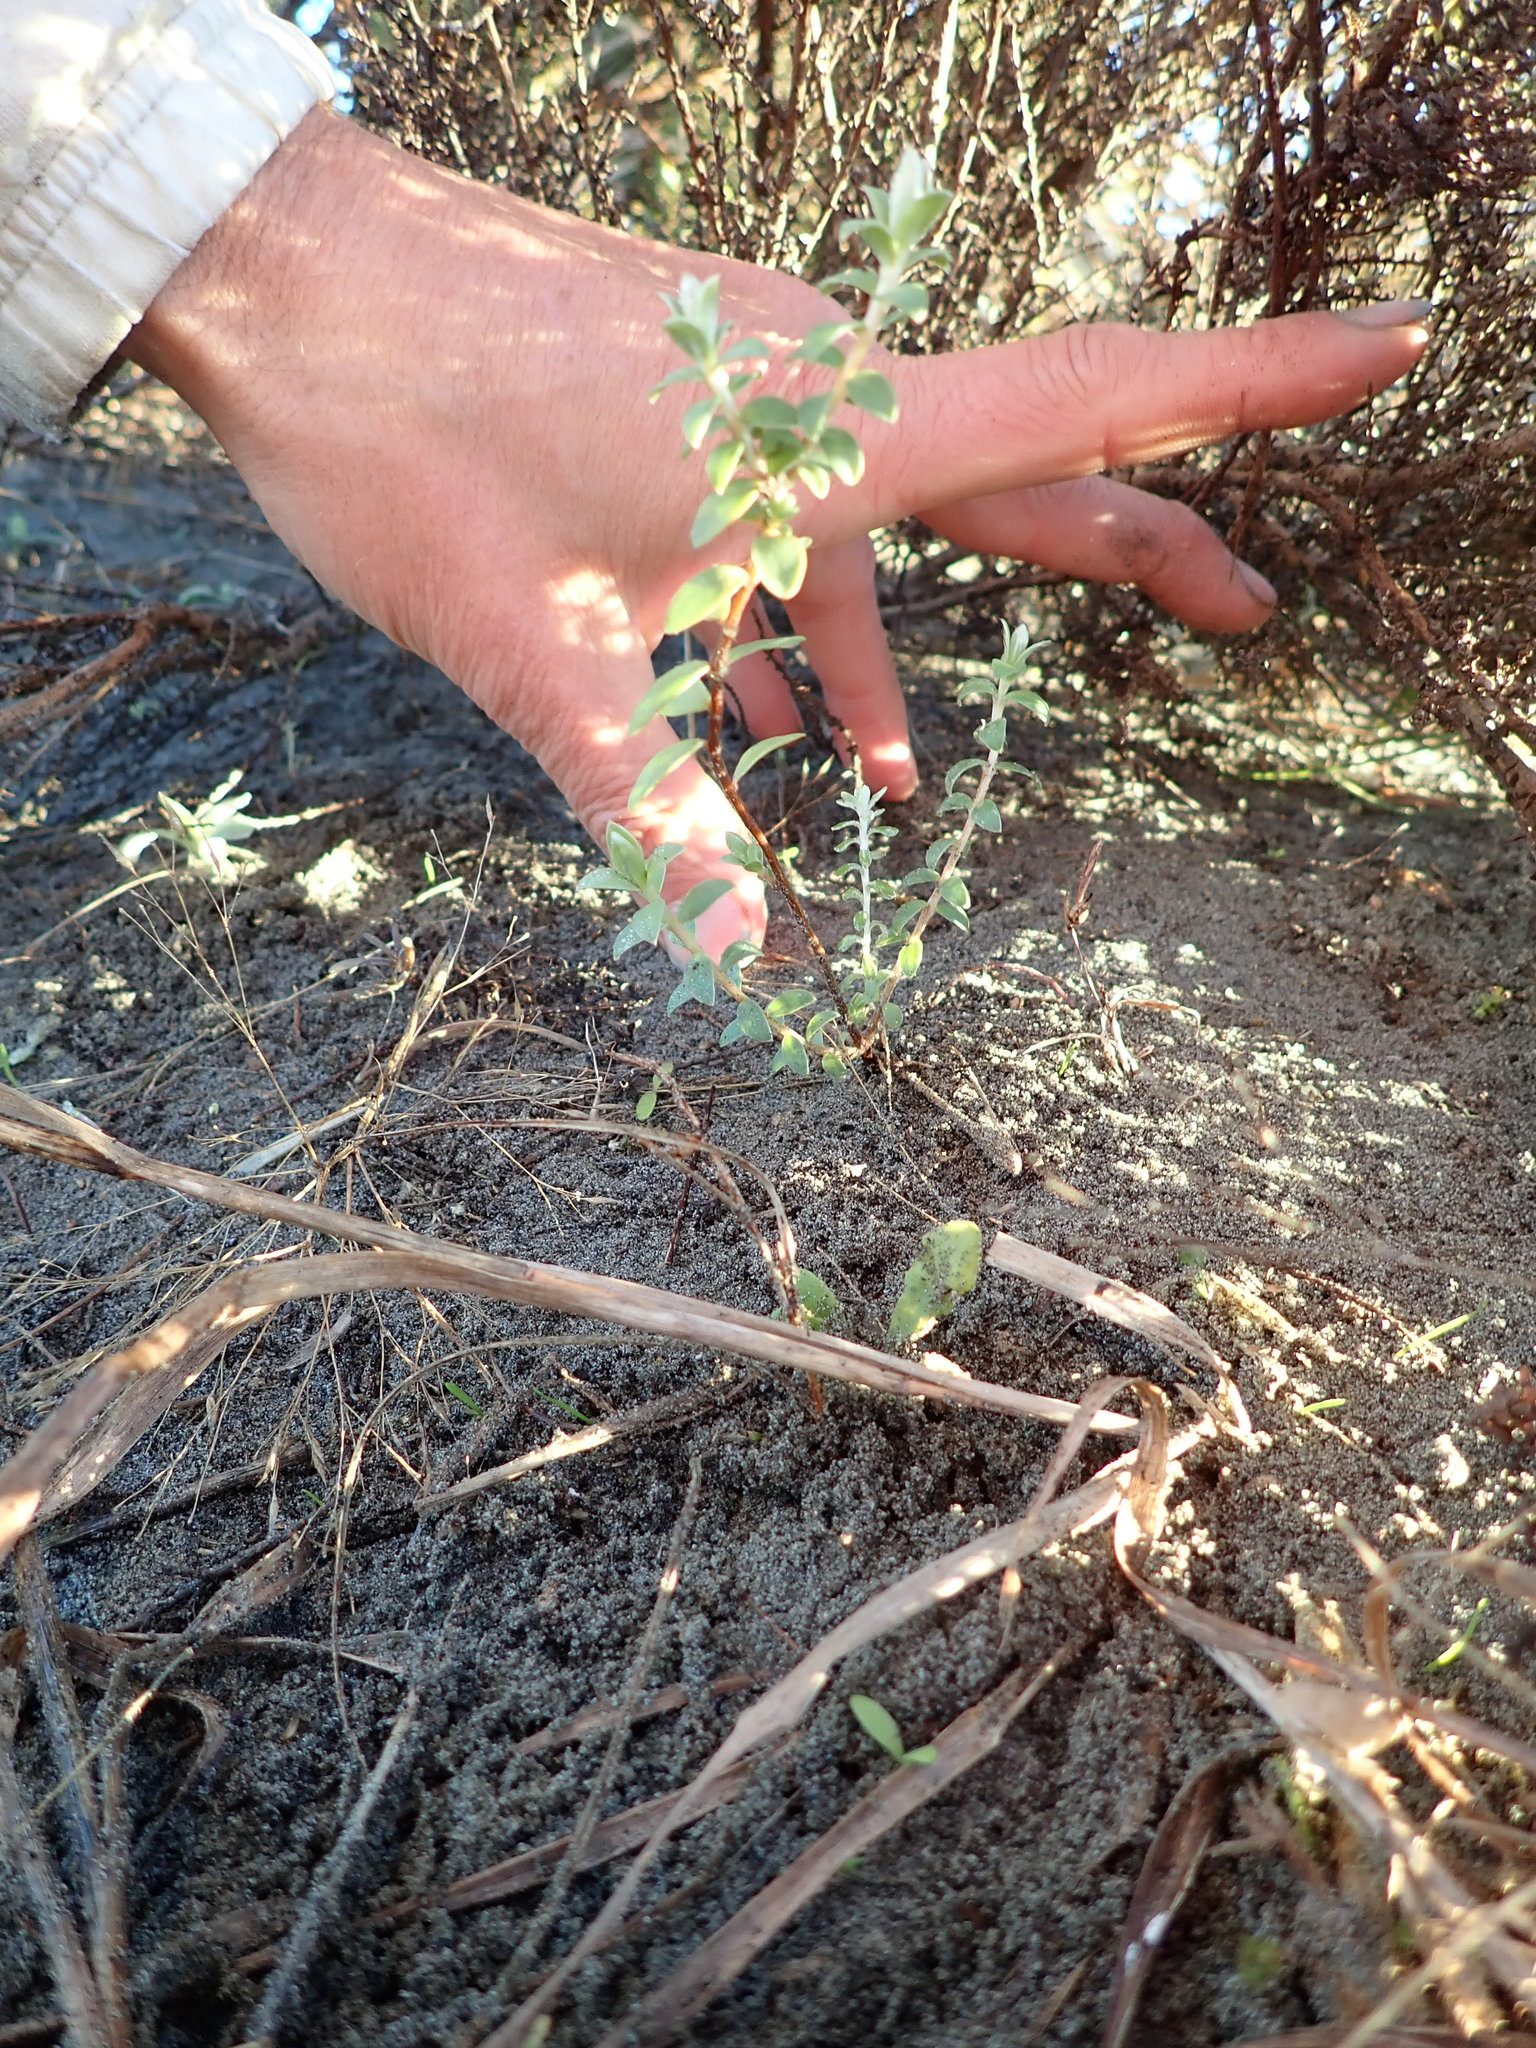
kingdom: Plantae
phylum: Tracheophyta
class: Magnoliopsida
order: Malvales
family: Thymelaeaceae
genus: Pimelea
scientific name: Pimelea villosa
